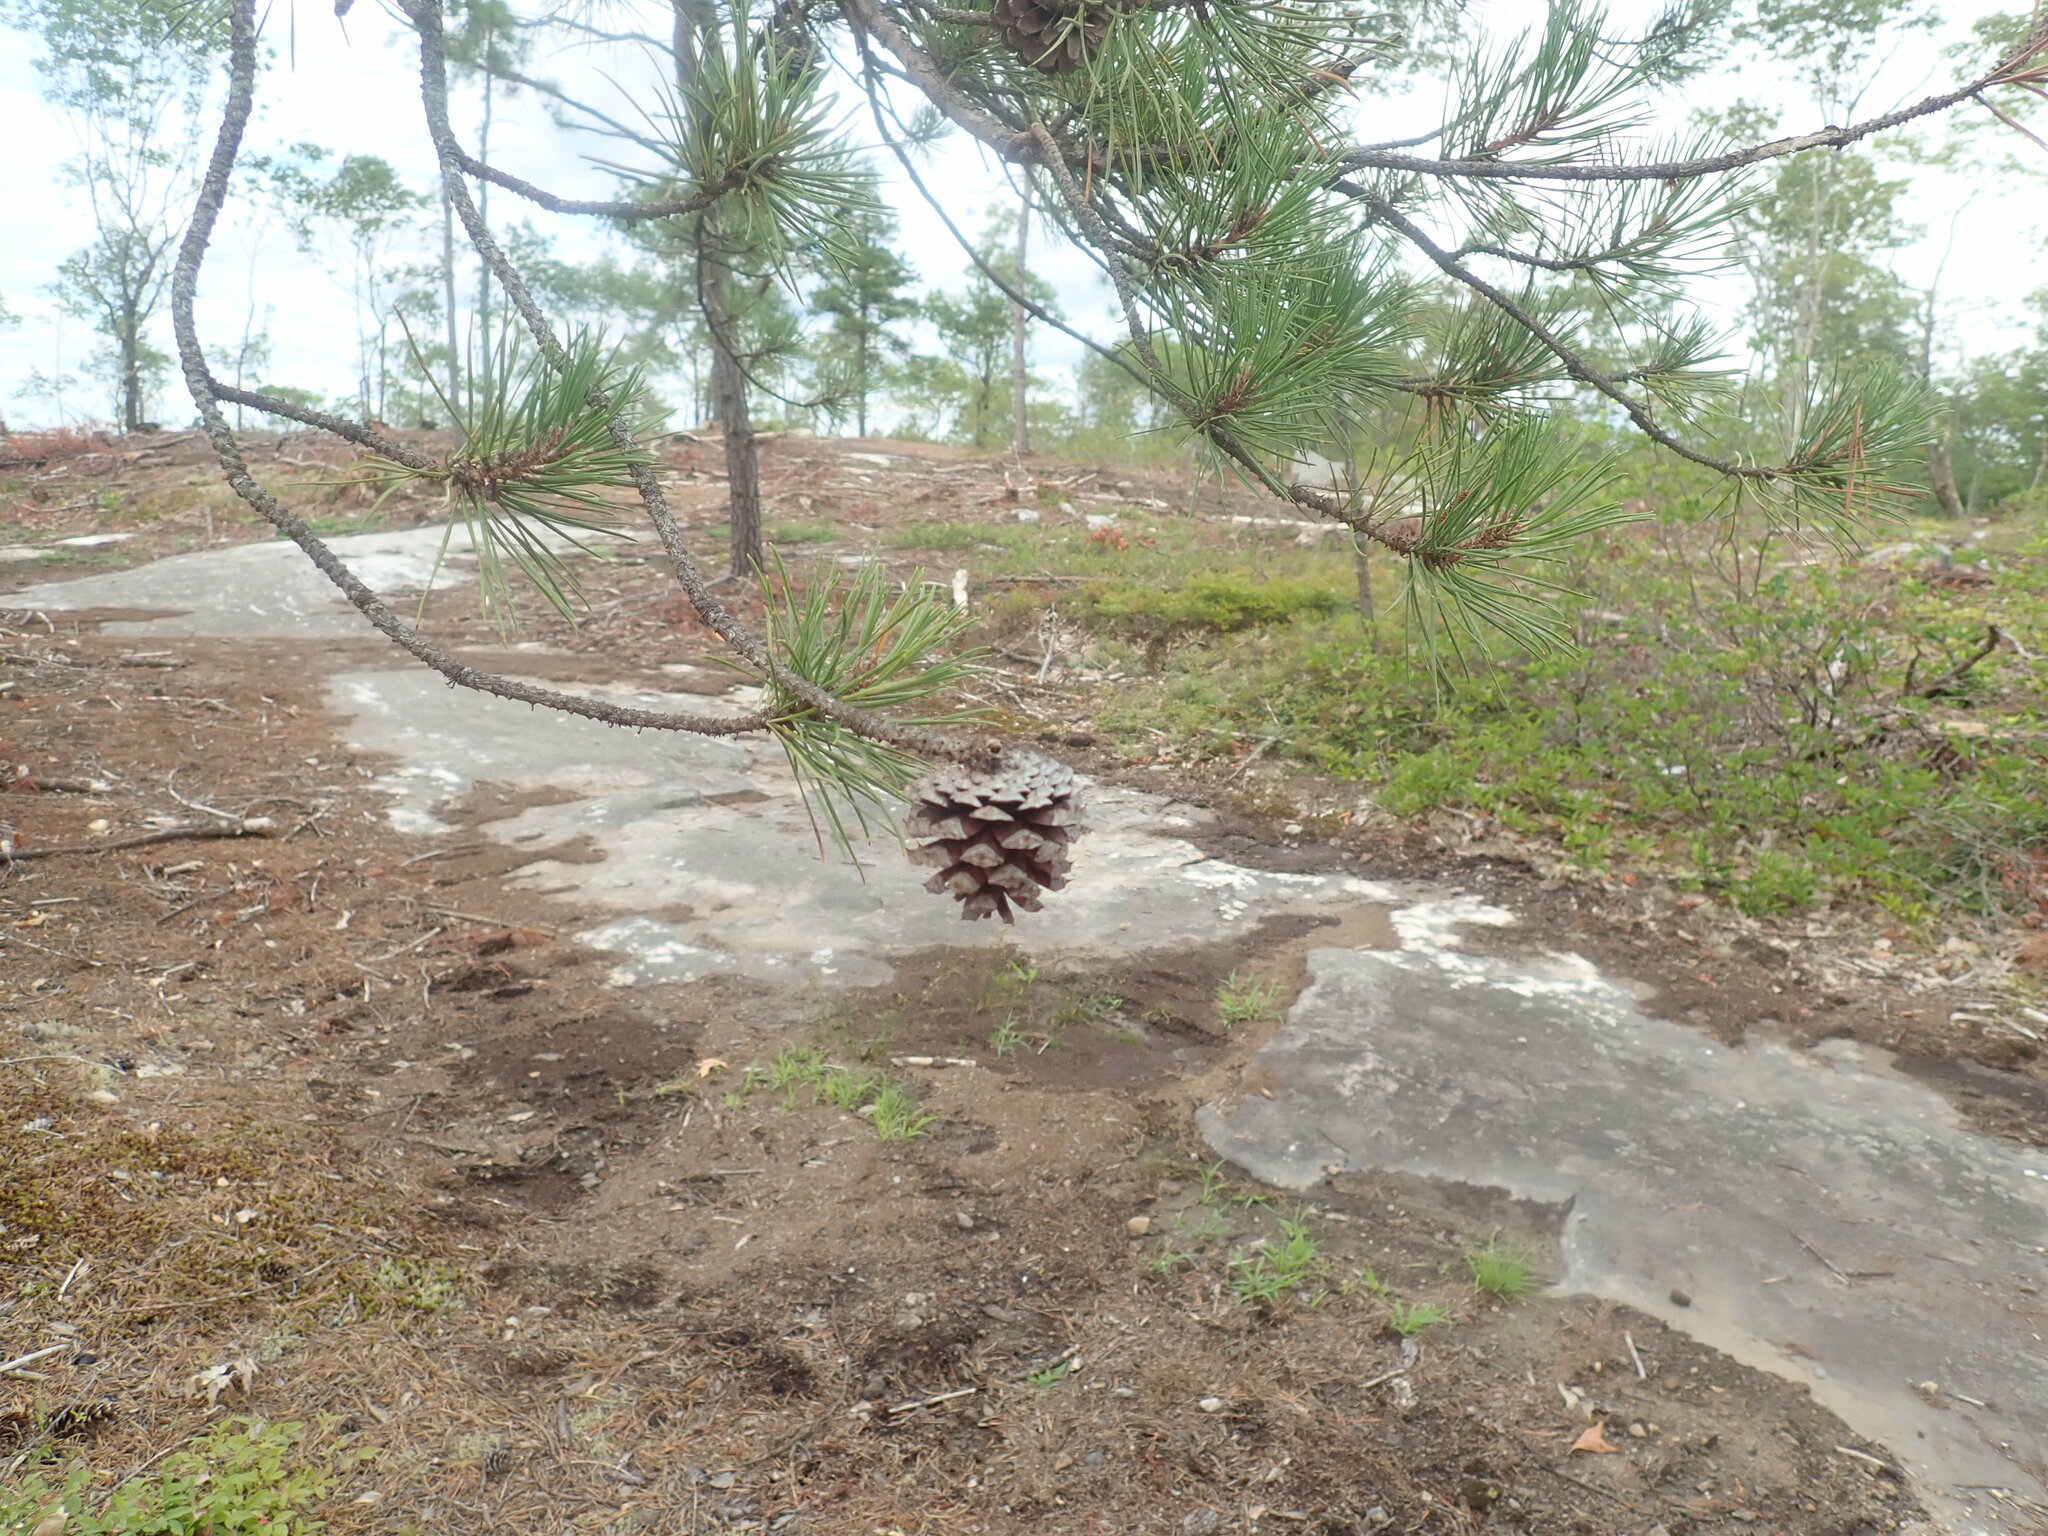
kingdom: Plantae
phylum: Tracheophyta
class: Pinopsida
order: Pinales
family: Pinaceae
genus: Pinus
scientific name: Pinus rigida
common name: Pitch pine
